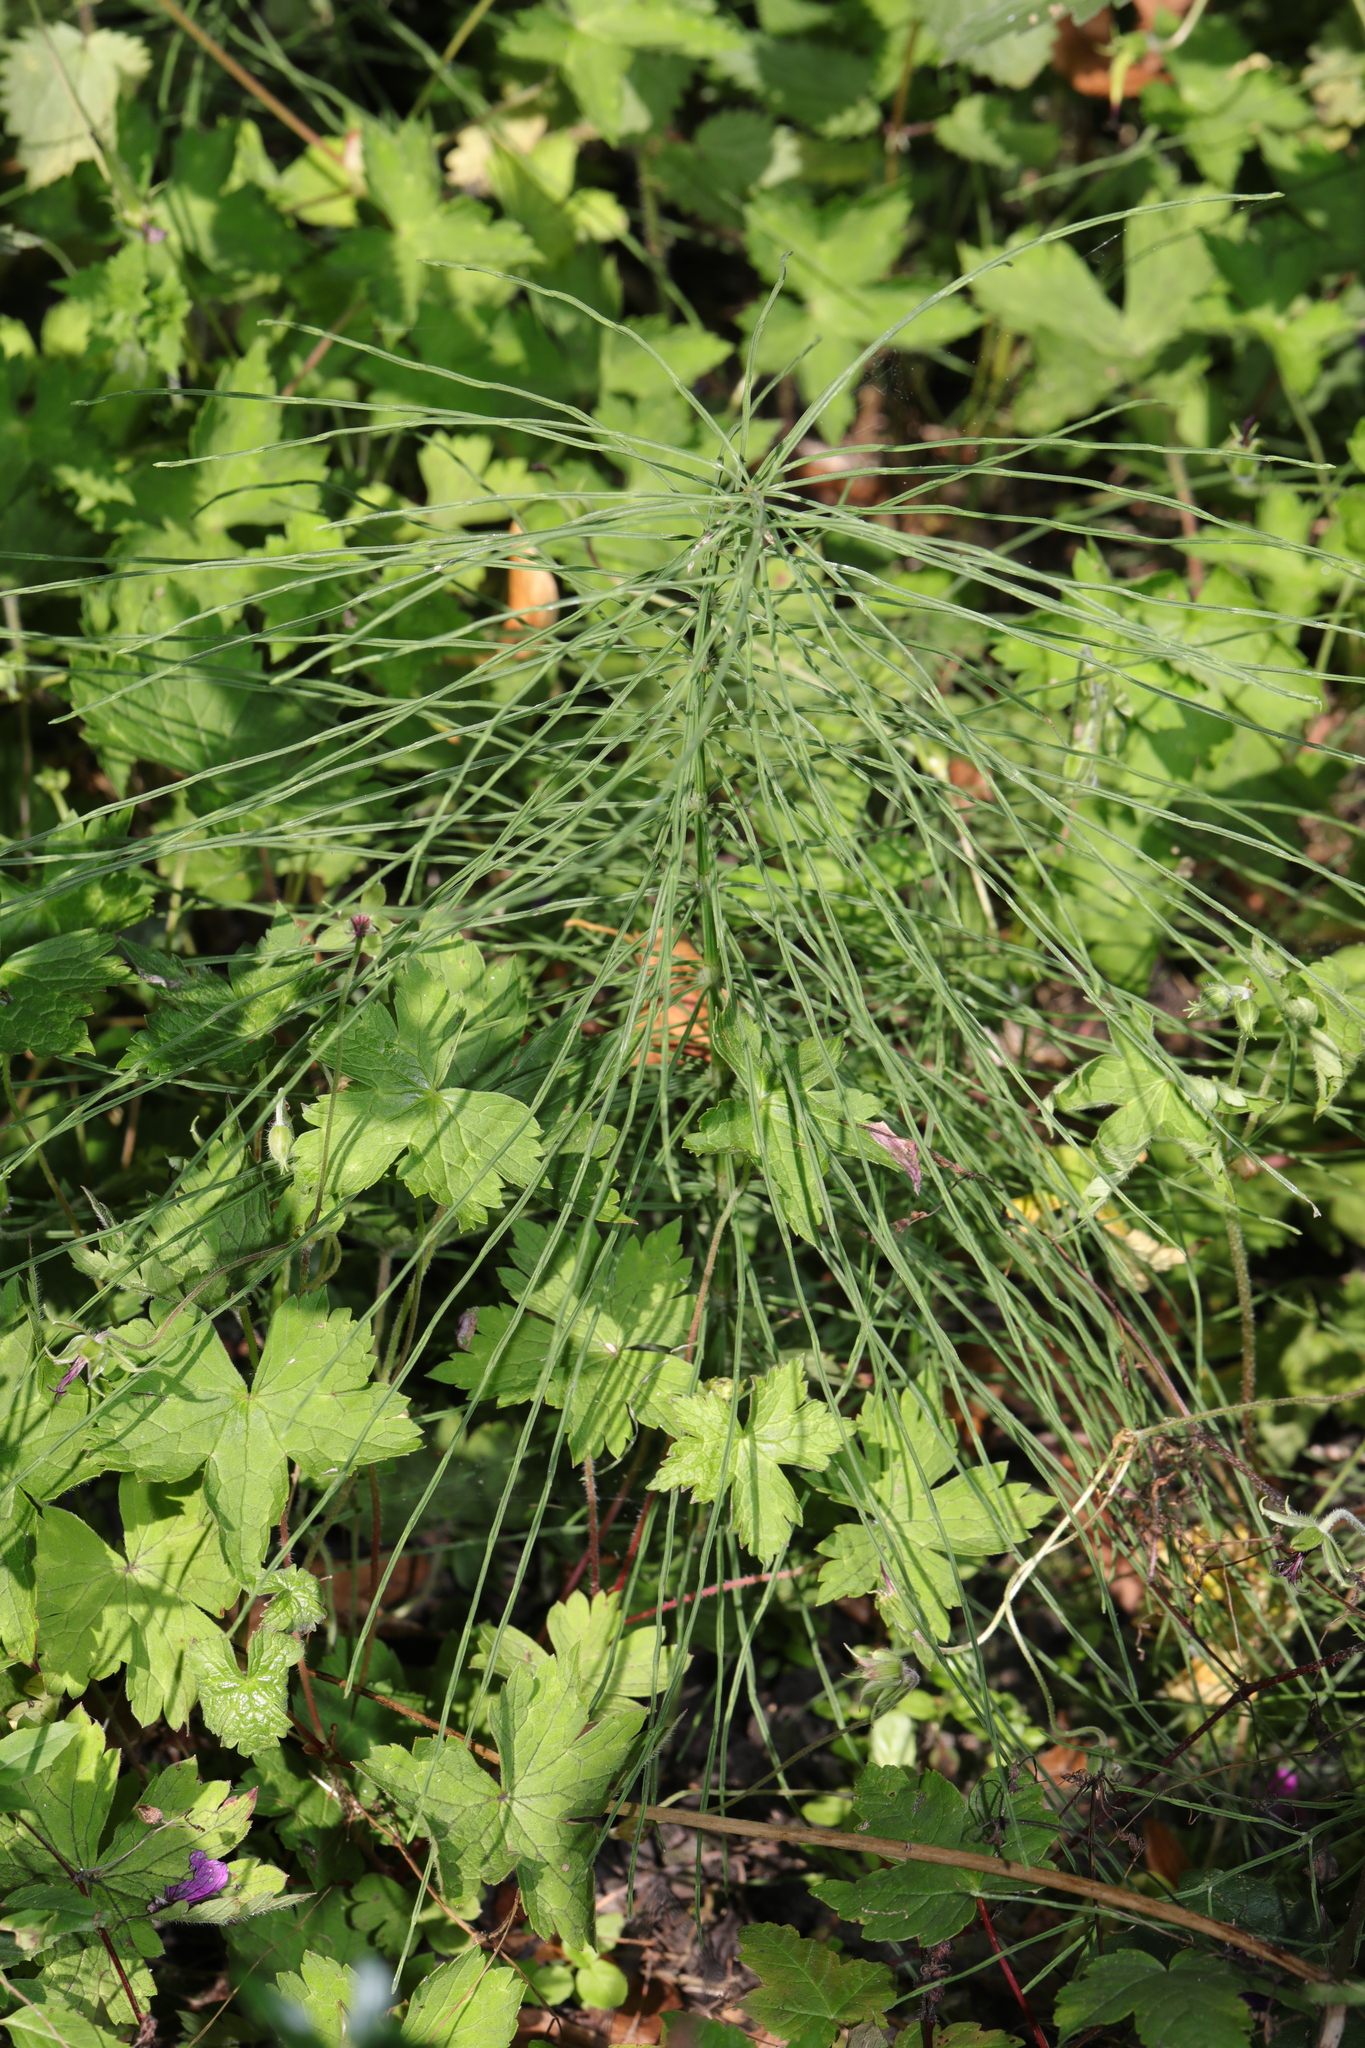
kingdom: Plantae
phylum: Tracheophyta
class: Polypodiopsida
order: Equisetales
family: Equisetaceae
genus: Equisetum
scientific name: Equisetum arvense
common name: Field horsetail
